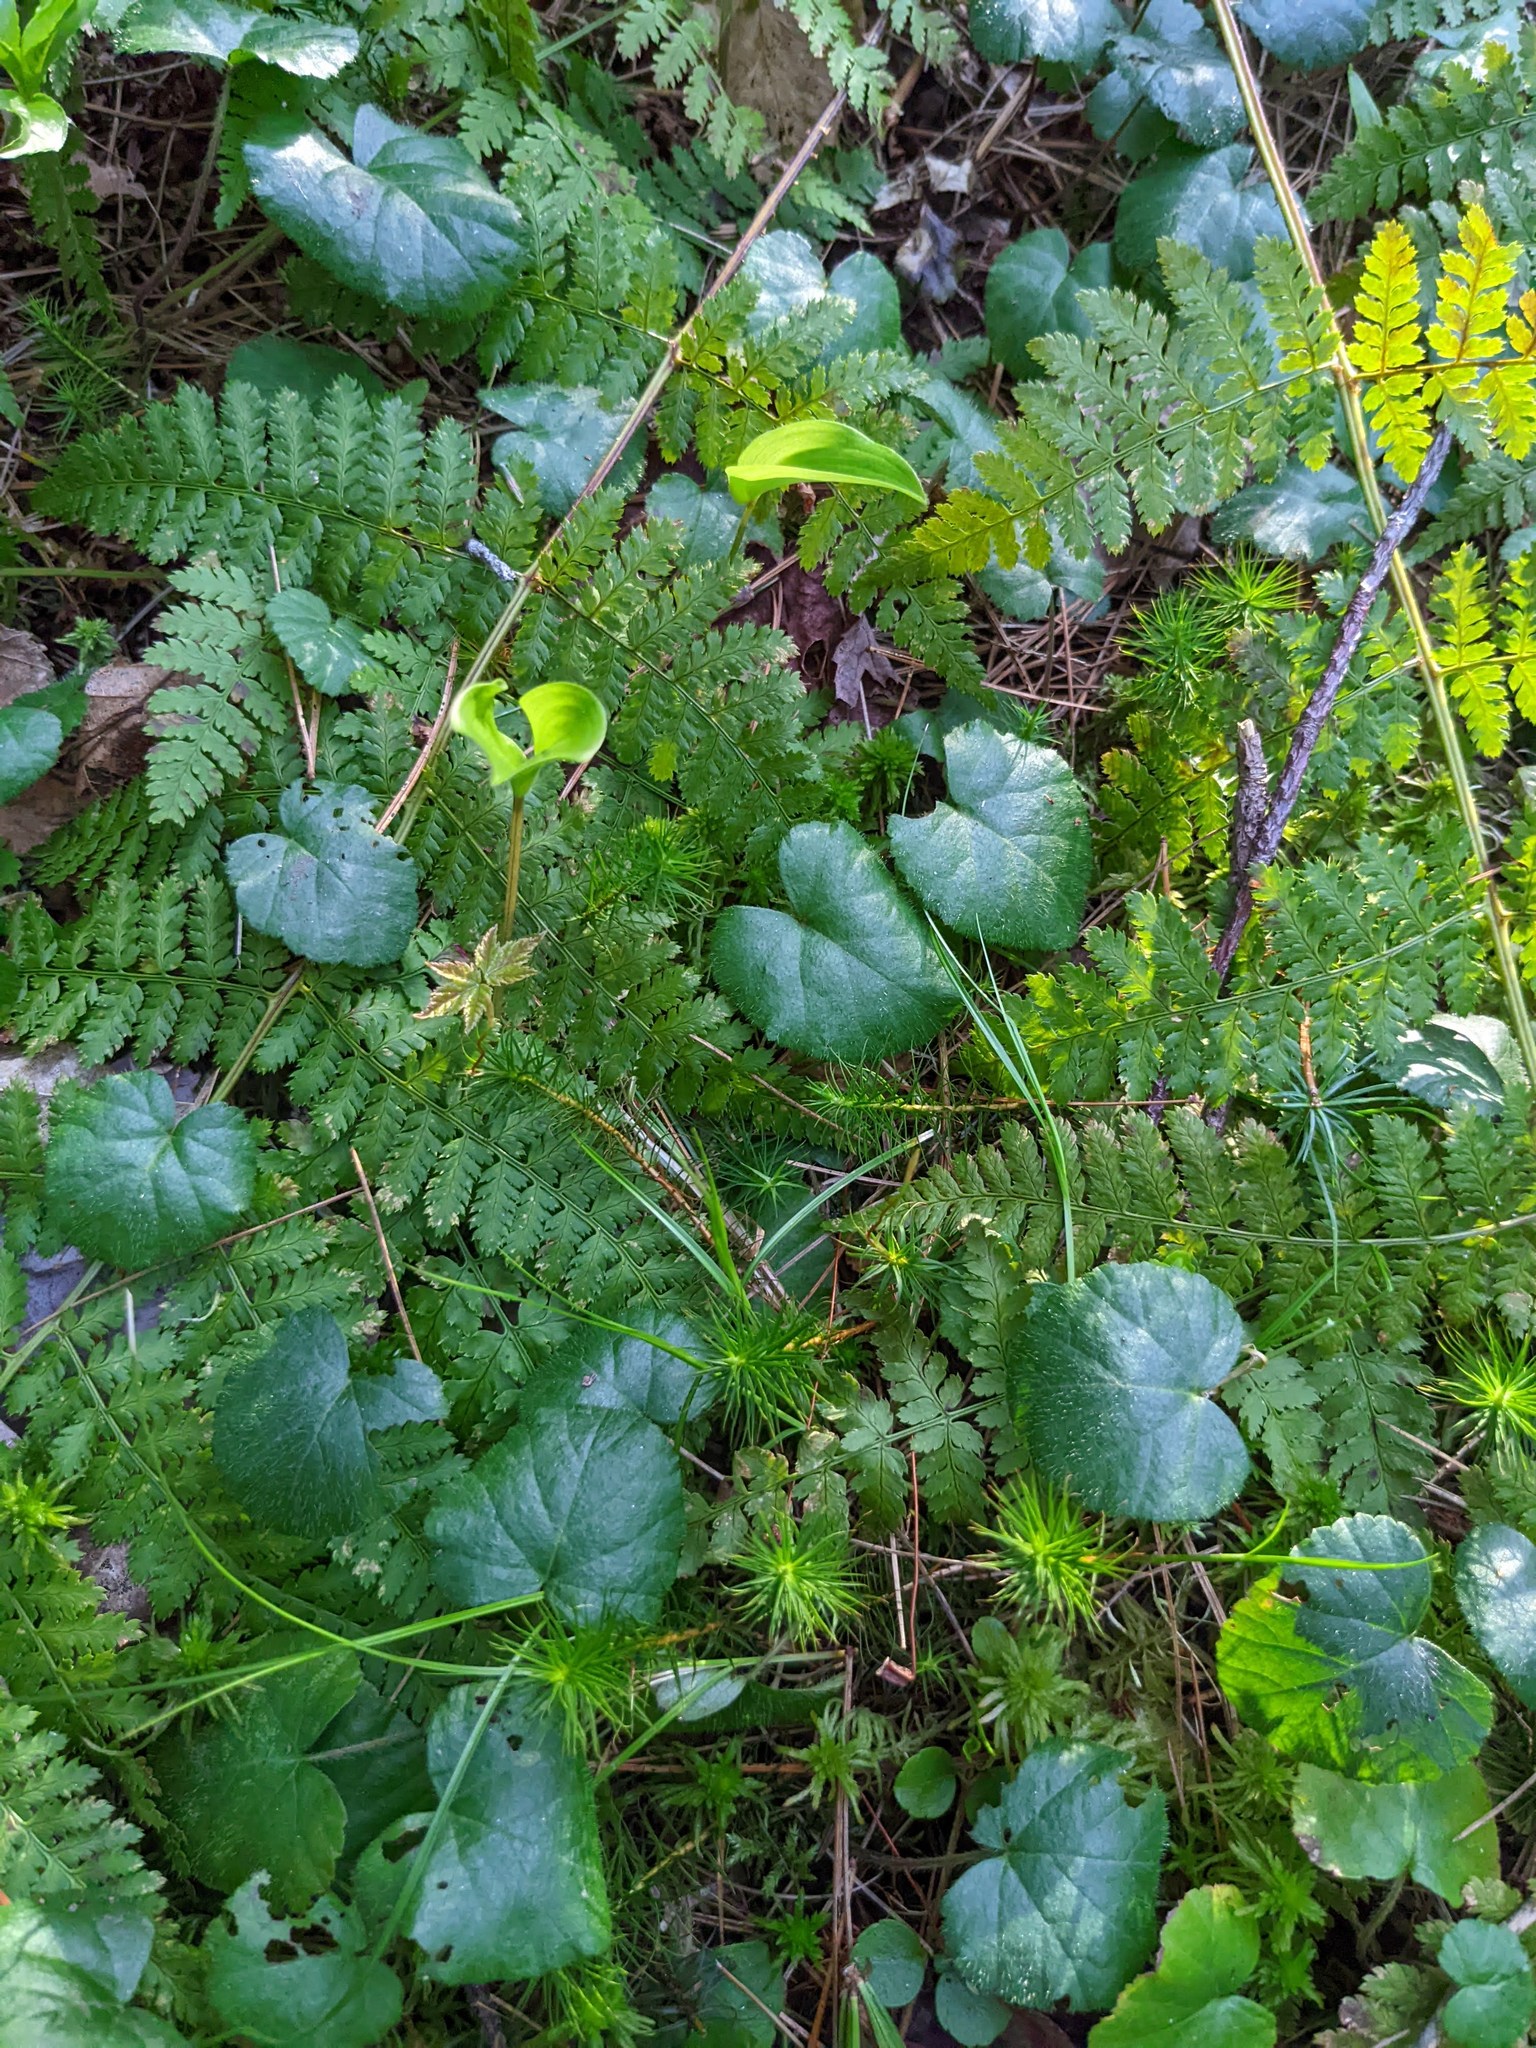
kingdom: Plantae
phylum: Tracheophyta
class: Magnoliopsida
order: Rosales
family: Rosaceae
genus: Dalibarda
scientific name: Dalibarda repens
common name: Dewdrop
